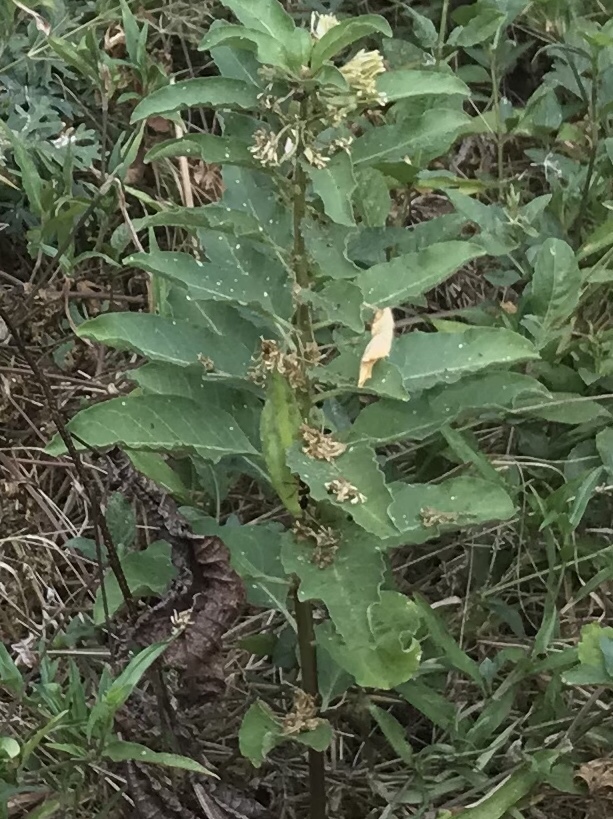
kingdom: Plantae
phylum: Tracheophyta
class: Magnoliopsida
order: Gentianales
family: Apocynaceae
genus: Asclepias
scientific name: Asclepias oenotheroides
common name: Zizotes milkweed
